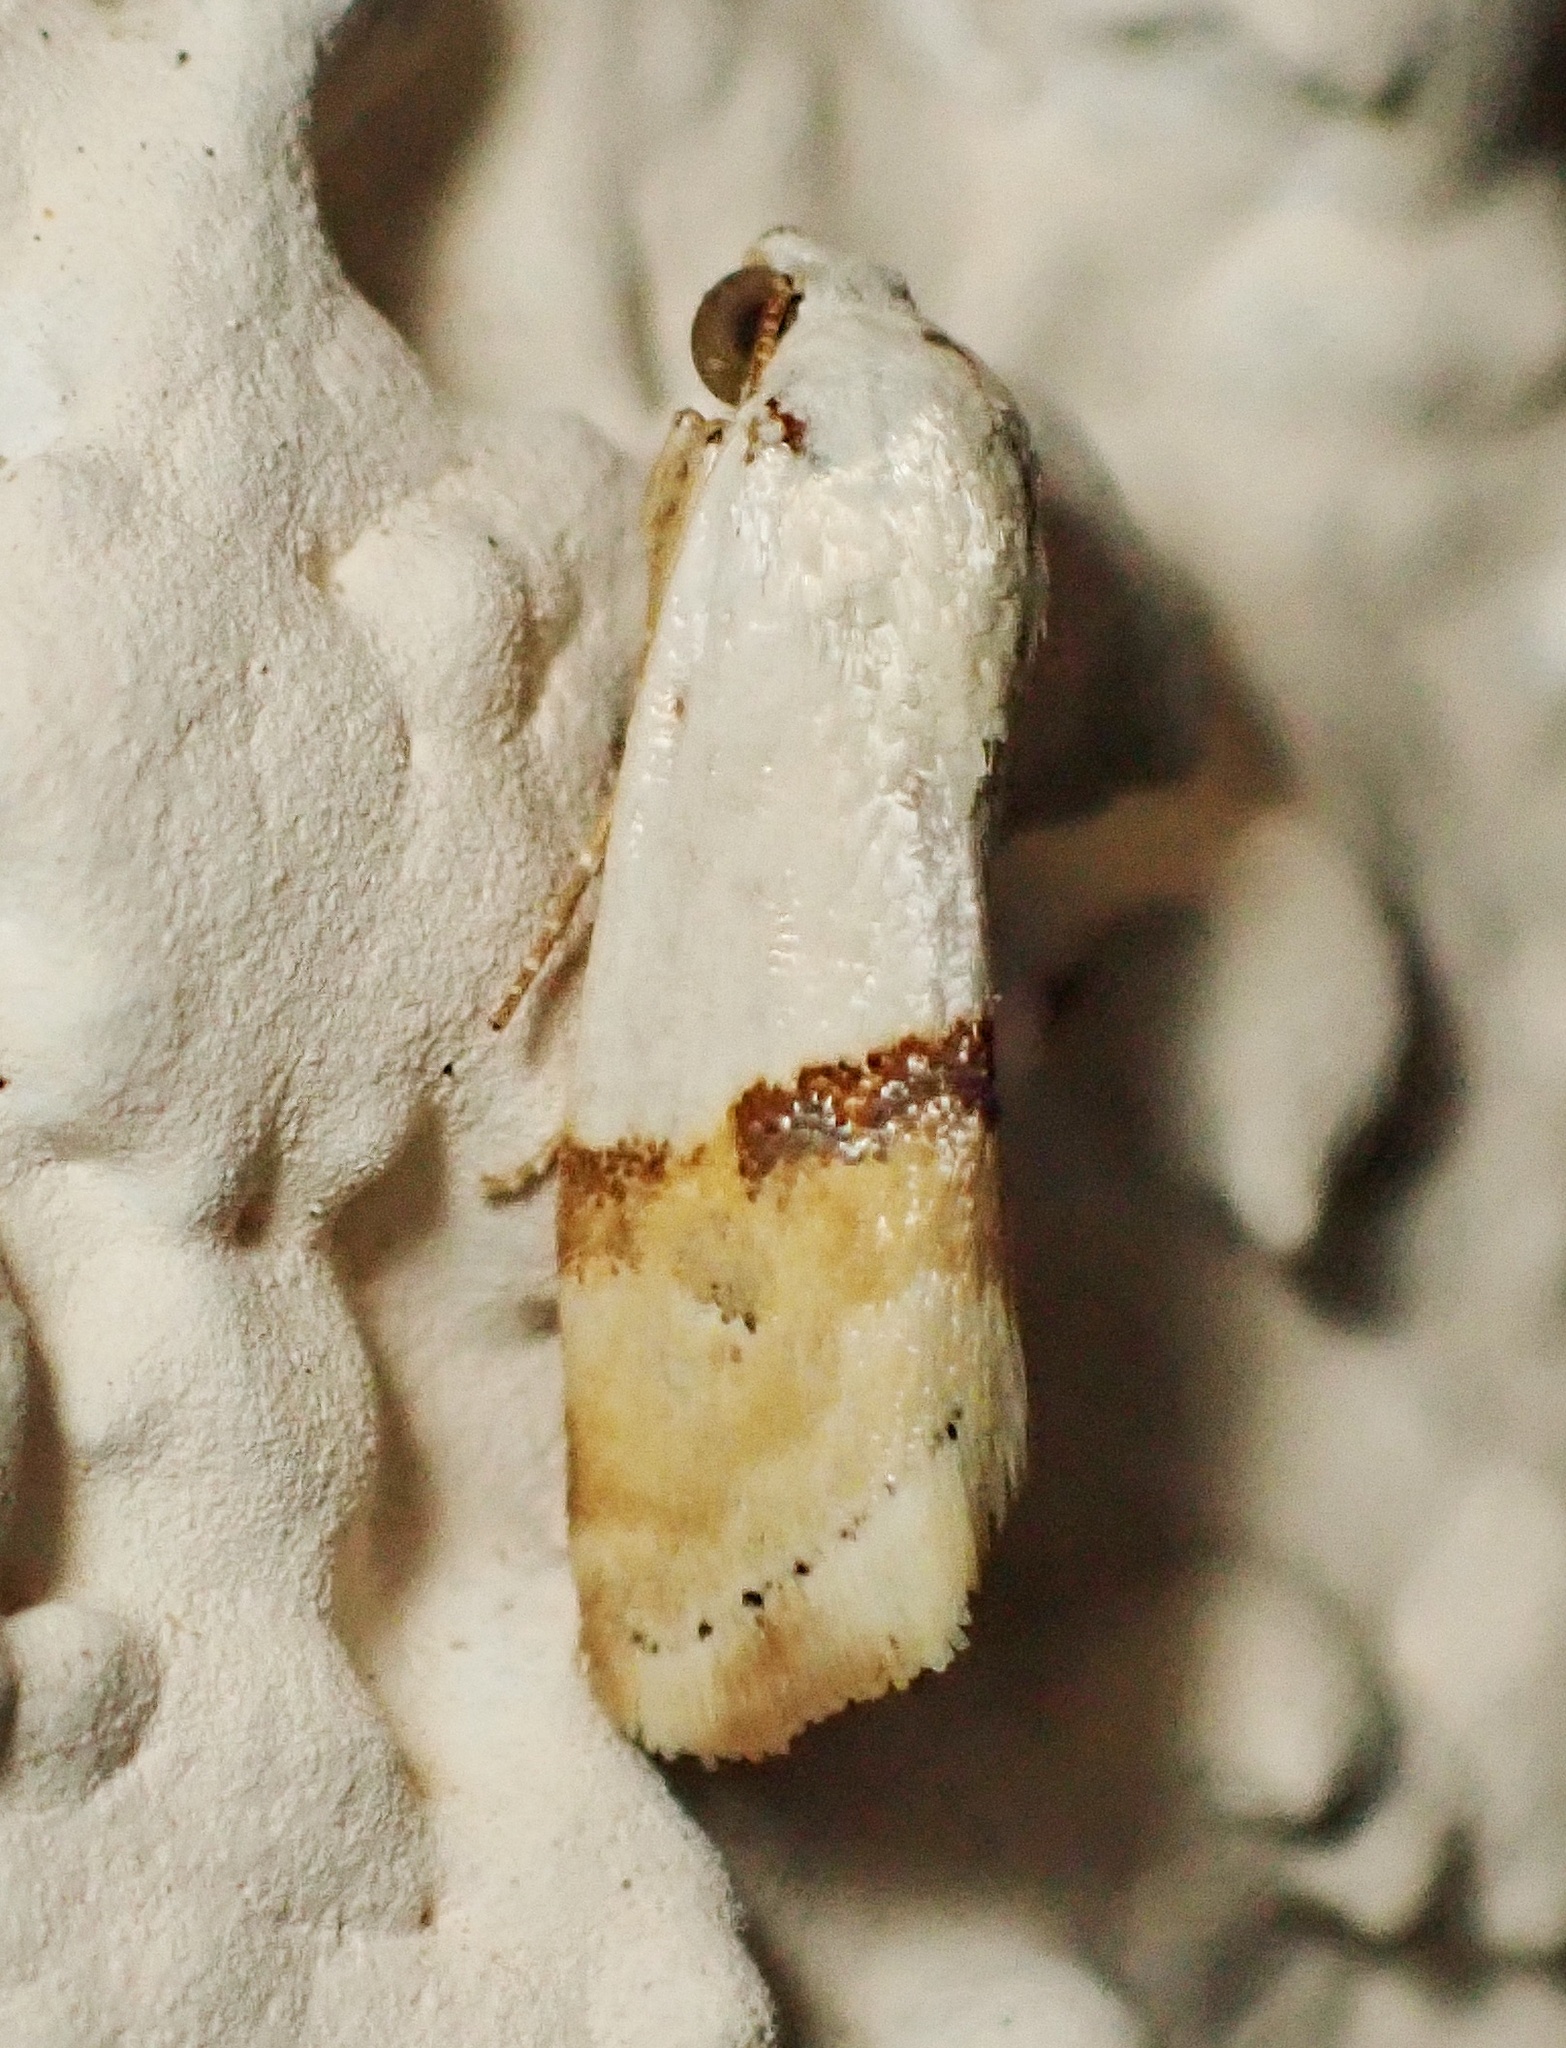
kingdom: Animalia
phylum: Arthropoda
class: Insecta
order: Lepidoptera
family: Noctuidae
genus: Ponometia
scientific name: Ponometia elegantula
